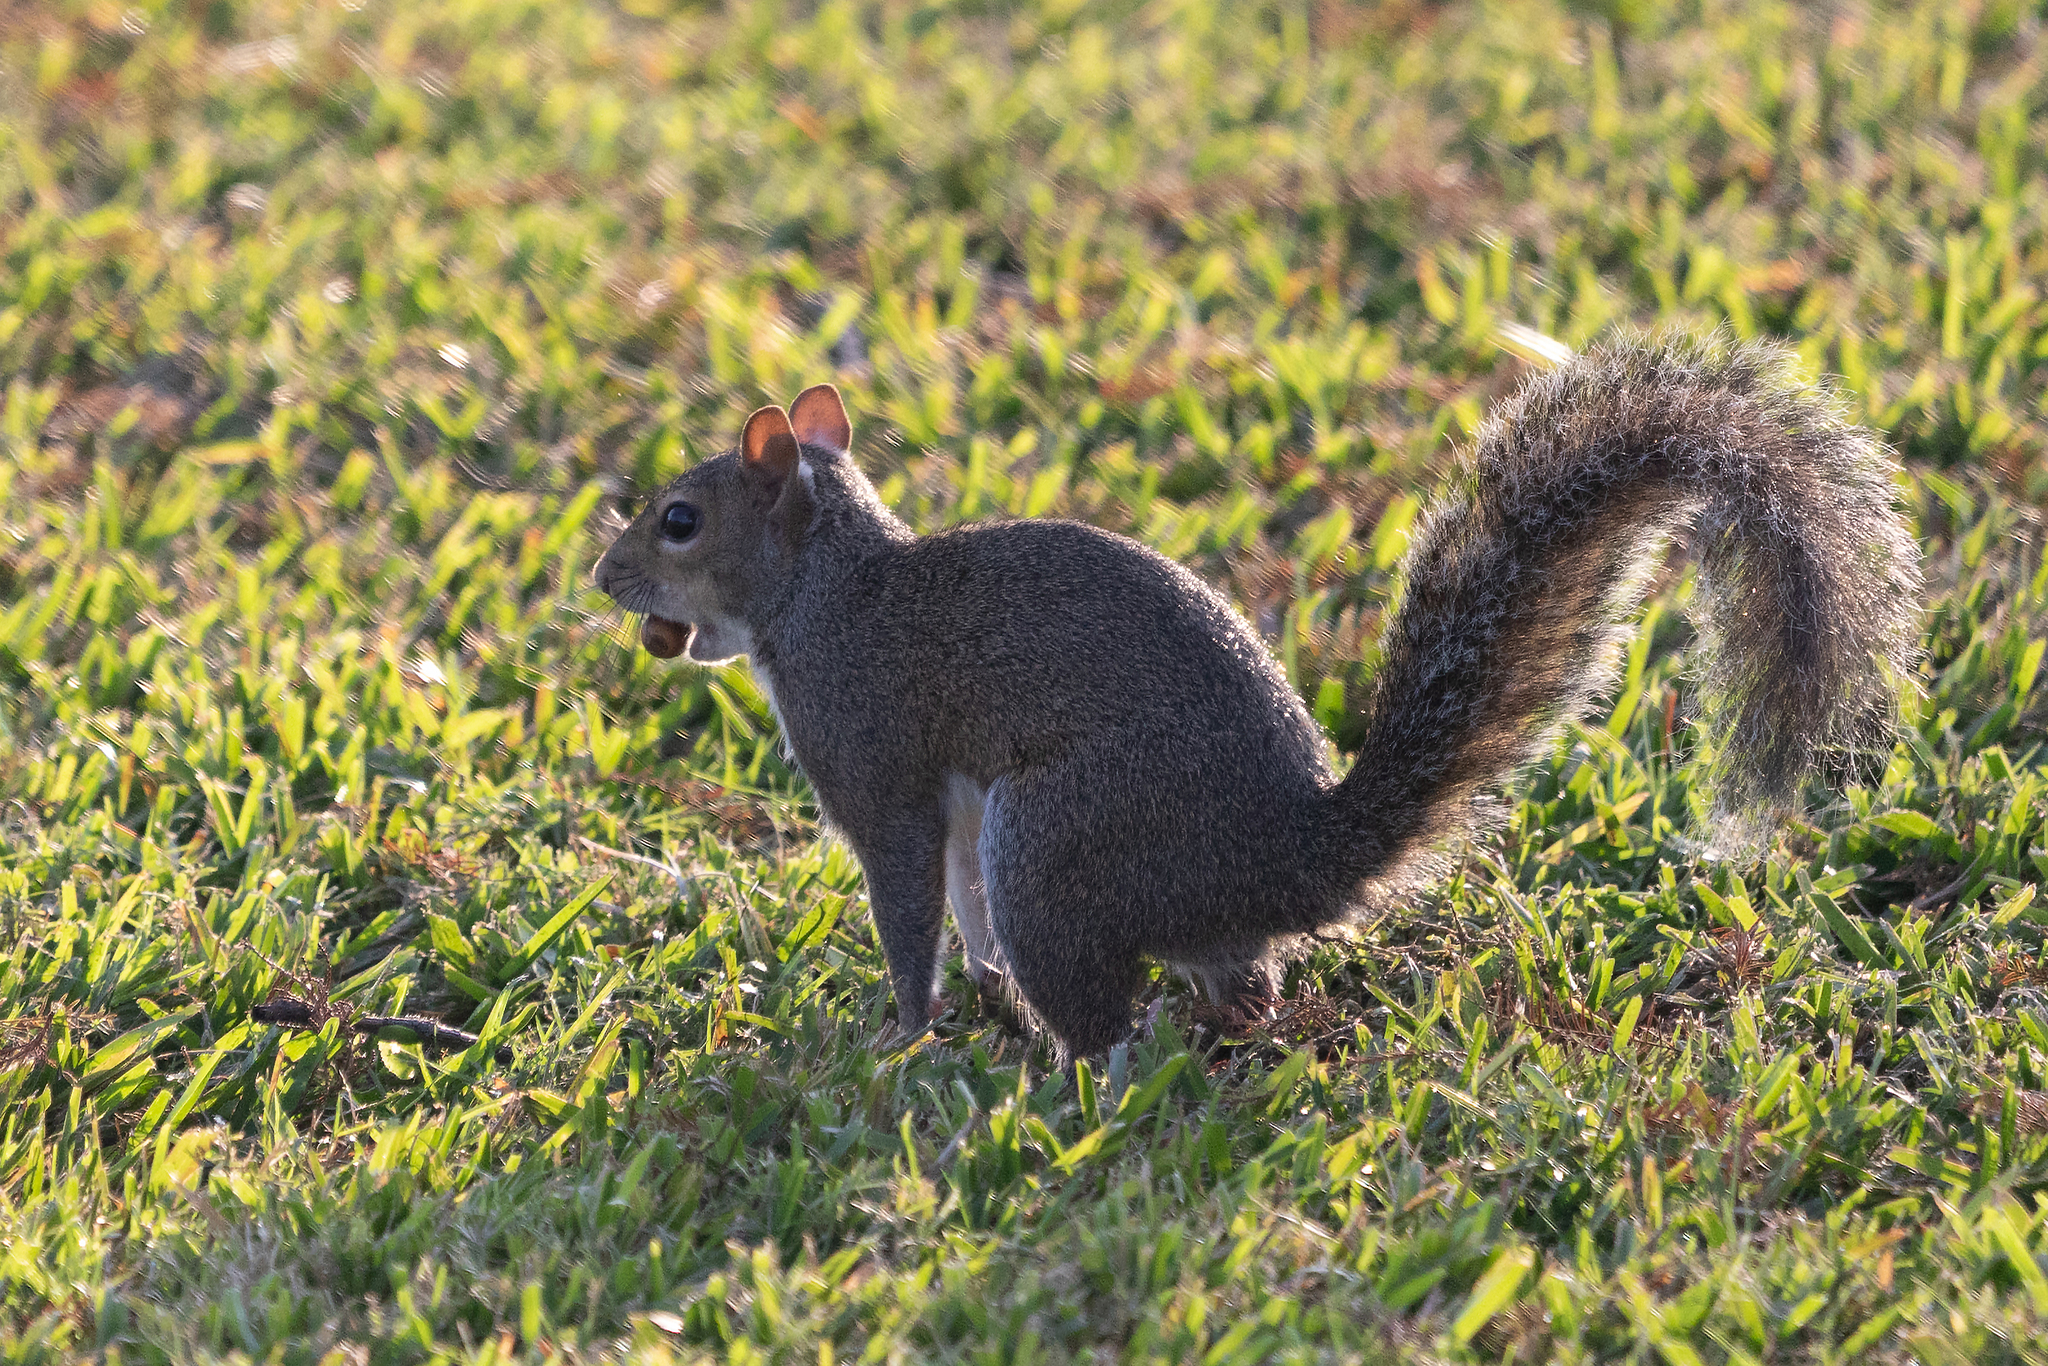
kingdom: Animalia
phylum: Chordata
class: Mammalia
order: Rodentia
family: Sciuridae
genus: Sciurus
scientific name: Sciurus carolinensis
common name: Eastern gray squirrel
